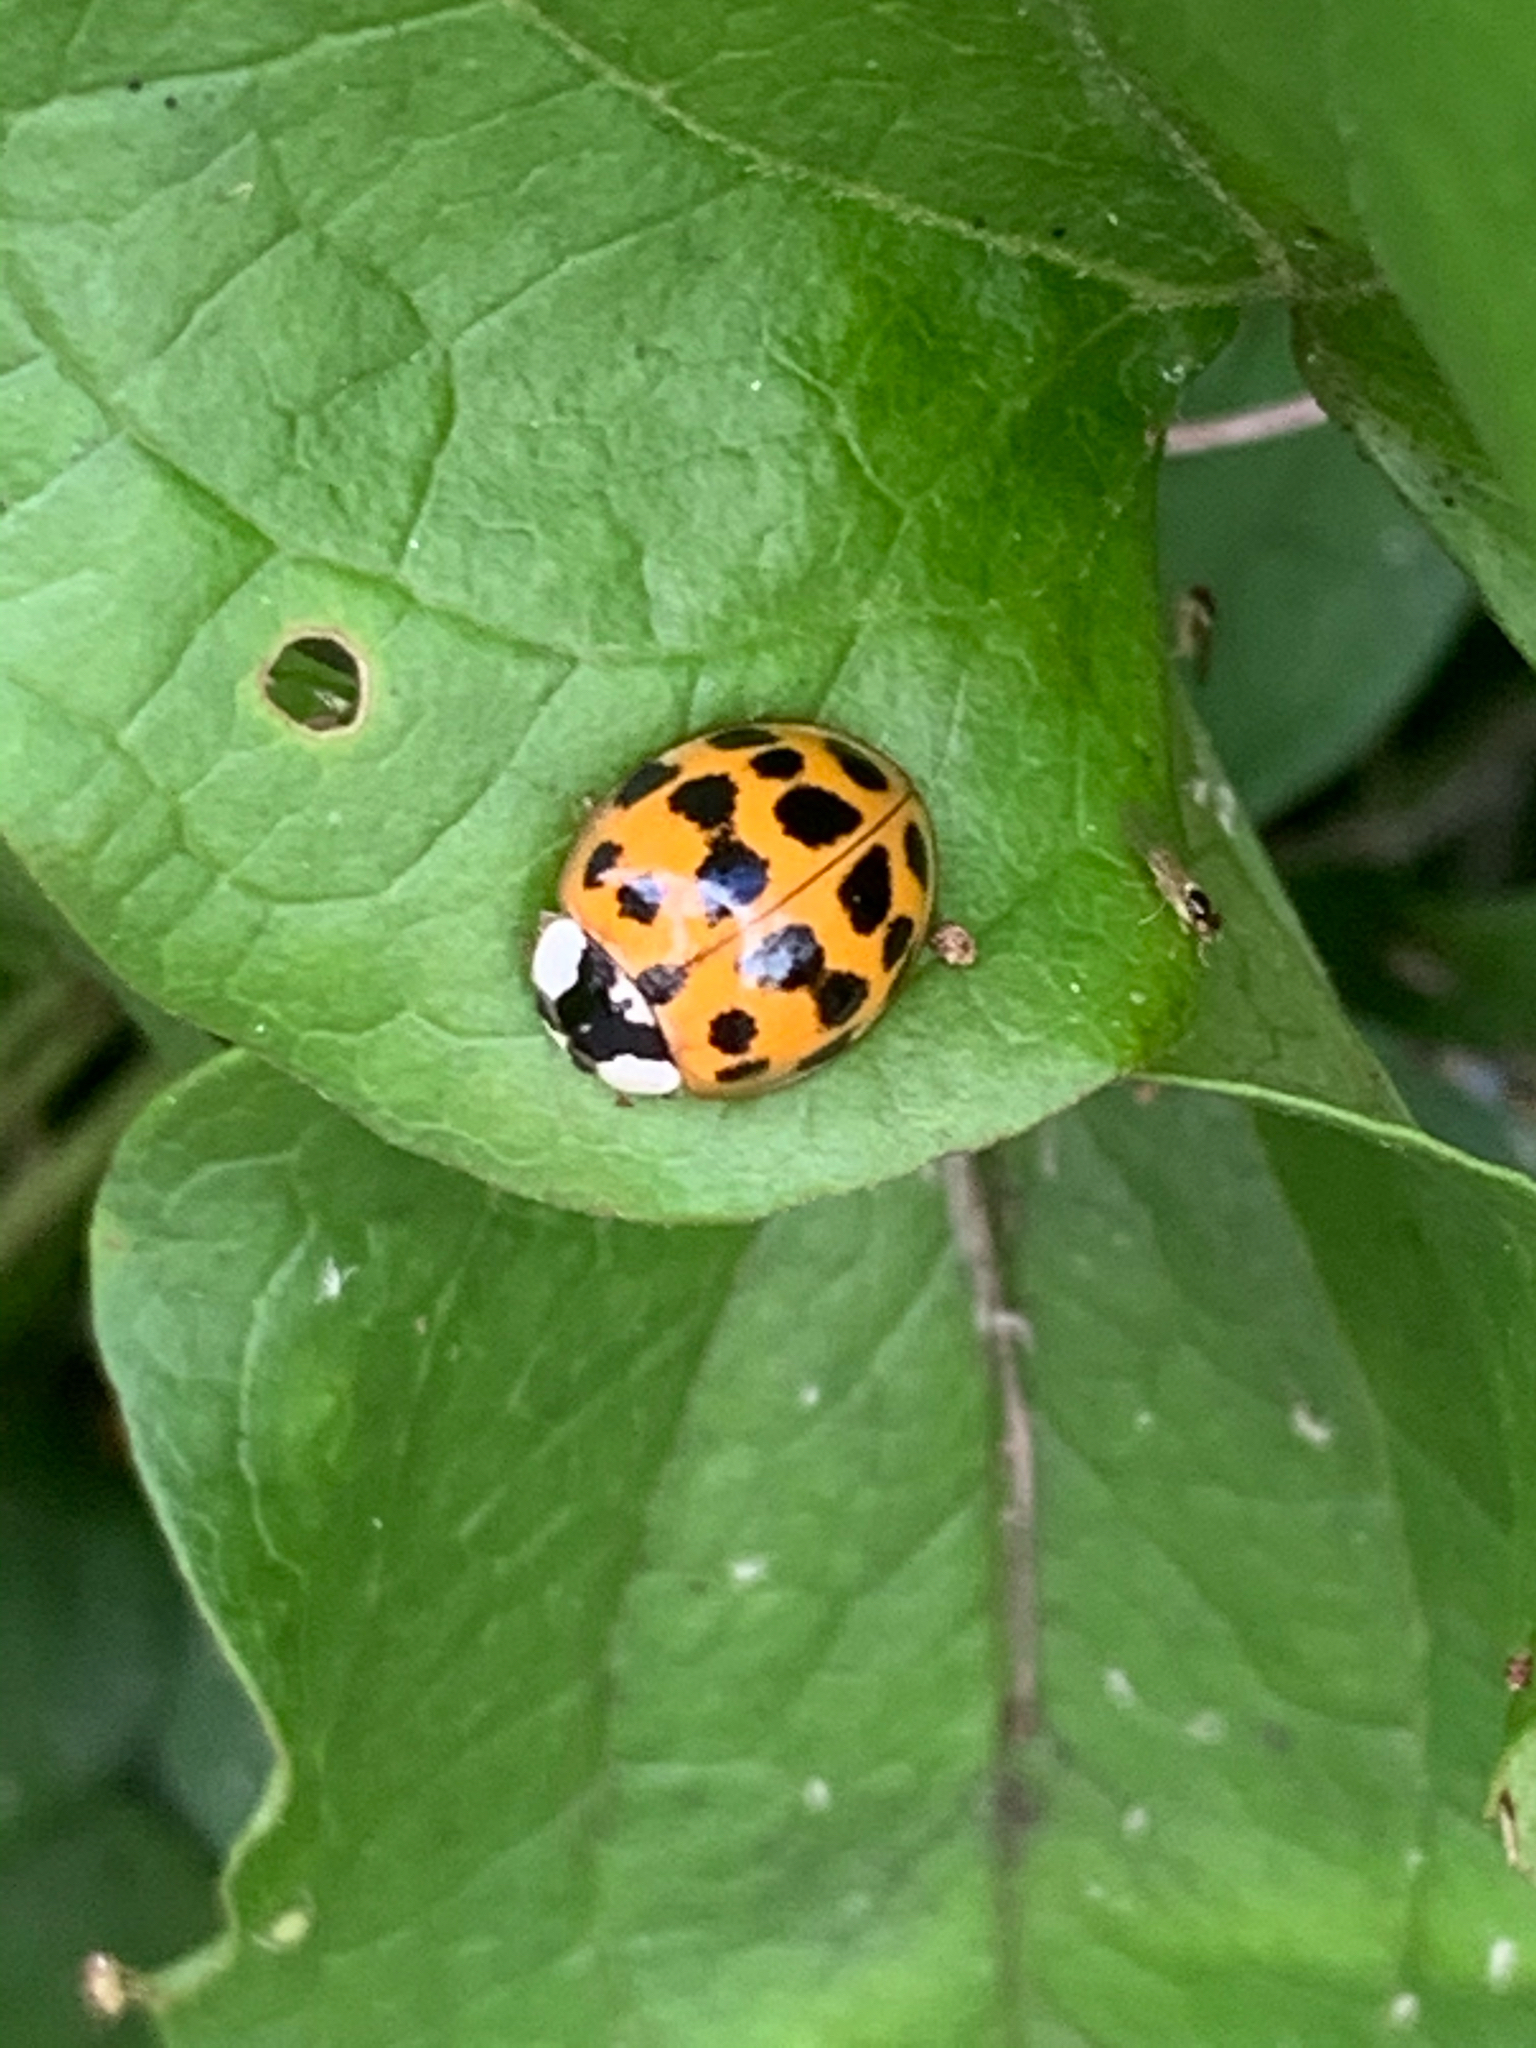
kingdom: Animalia
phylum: Arthropoda
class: Insecta
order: Coleoptera
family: Coccinellidae
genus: Harmonia
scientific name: Harmonia axyridis
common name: Harlequin ladybird
